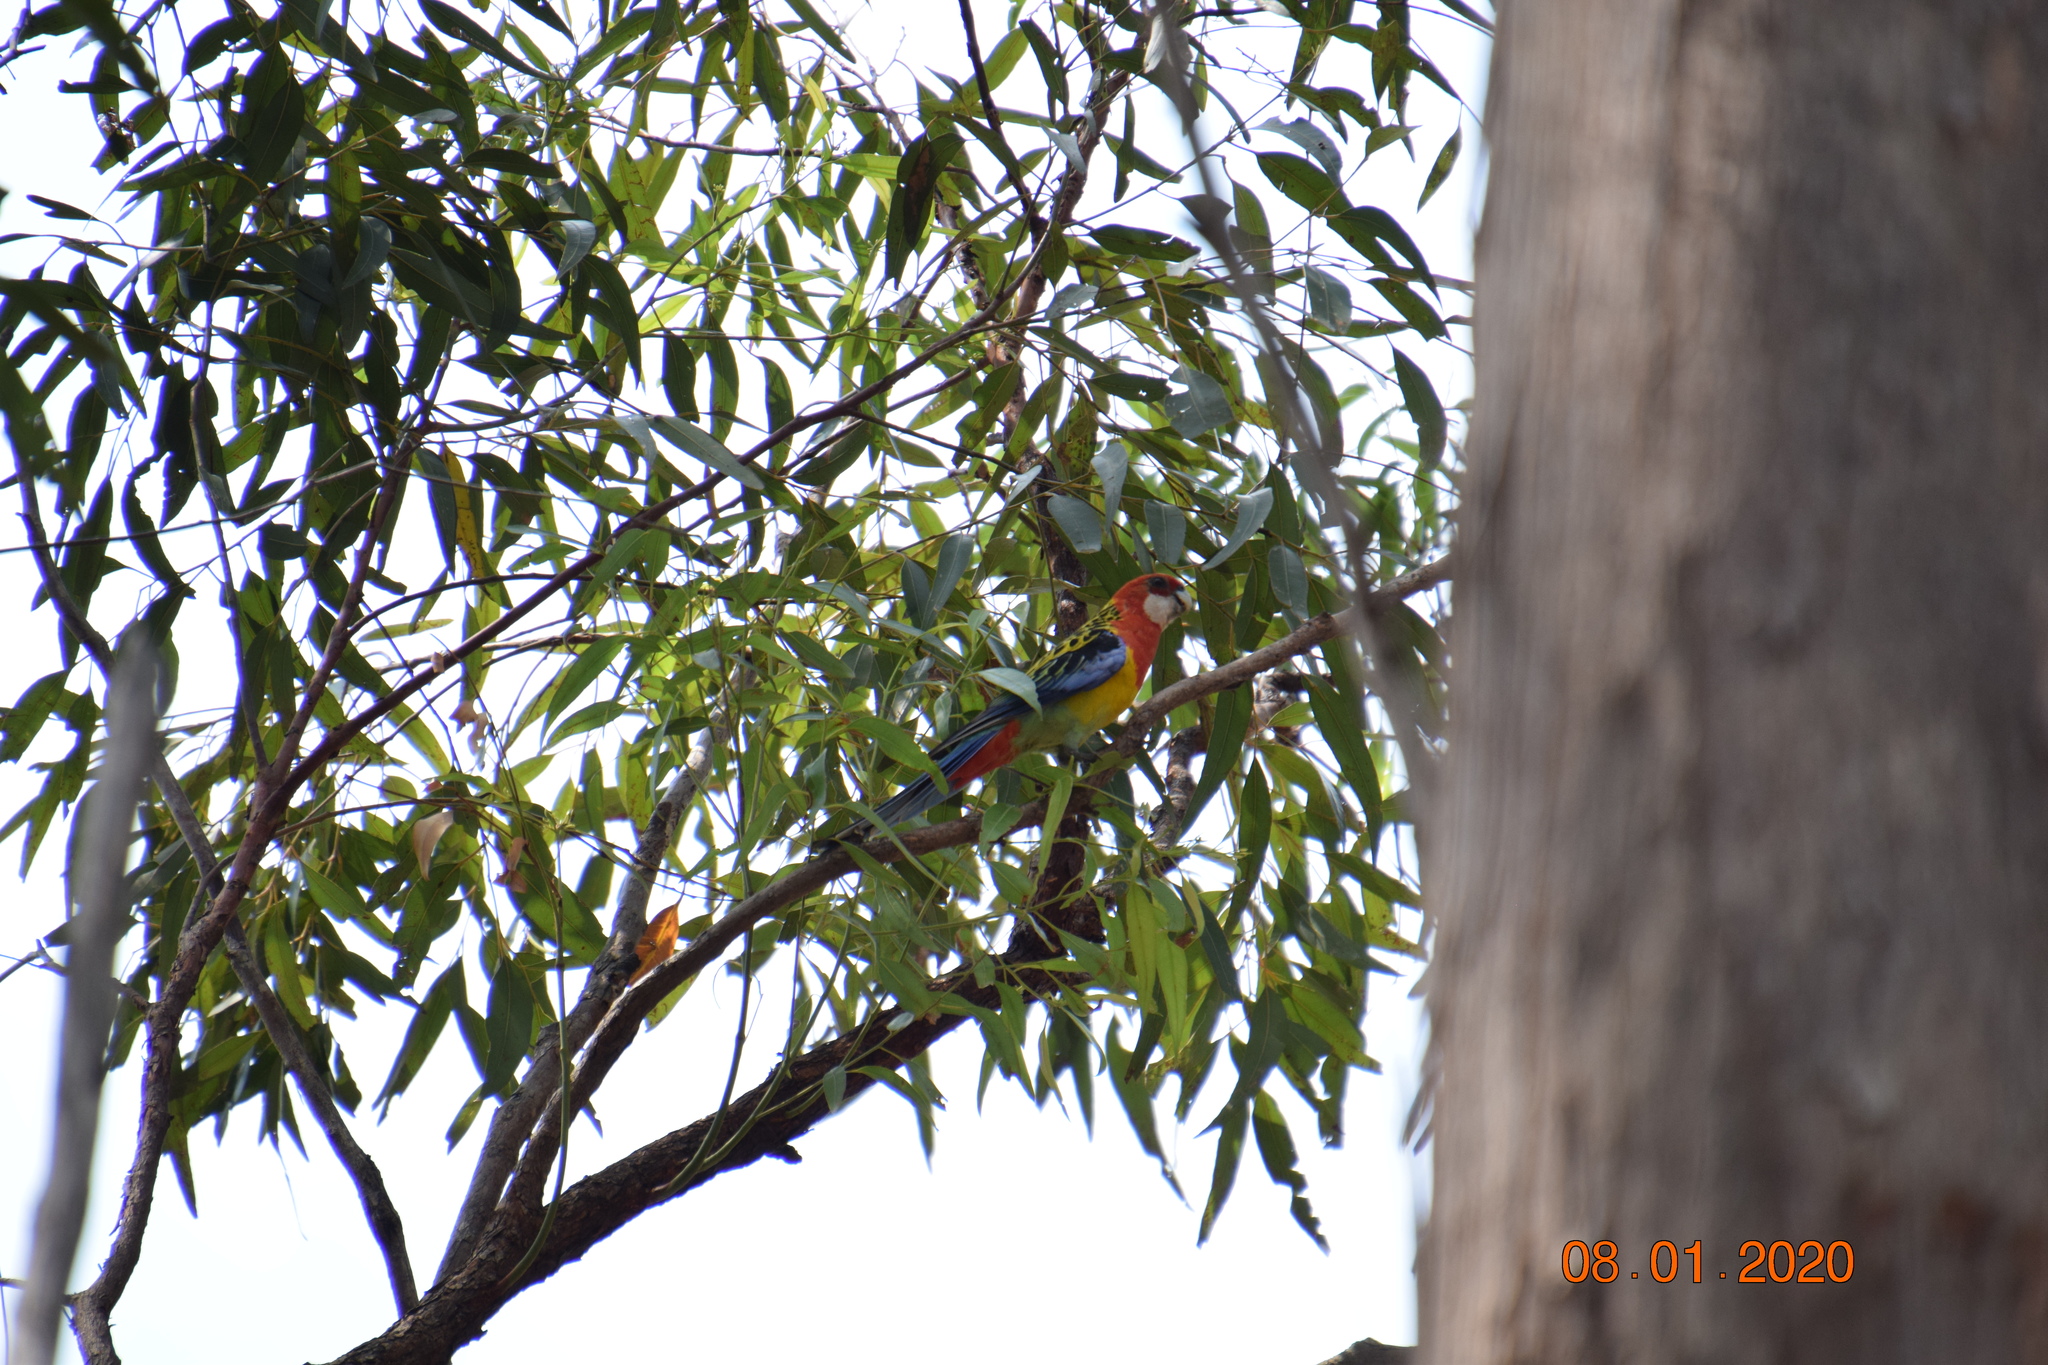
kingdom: Animalia
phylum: Chordata
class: Aves
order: Psittaciformes
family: Psittacidae
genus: Platycercus
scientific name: Platycercus eximius
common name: Eastern rosella
